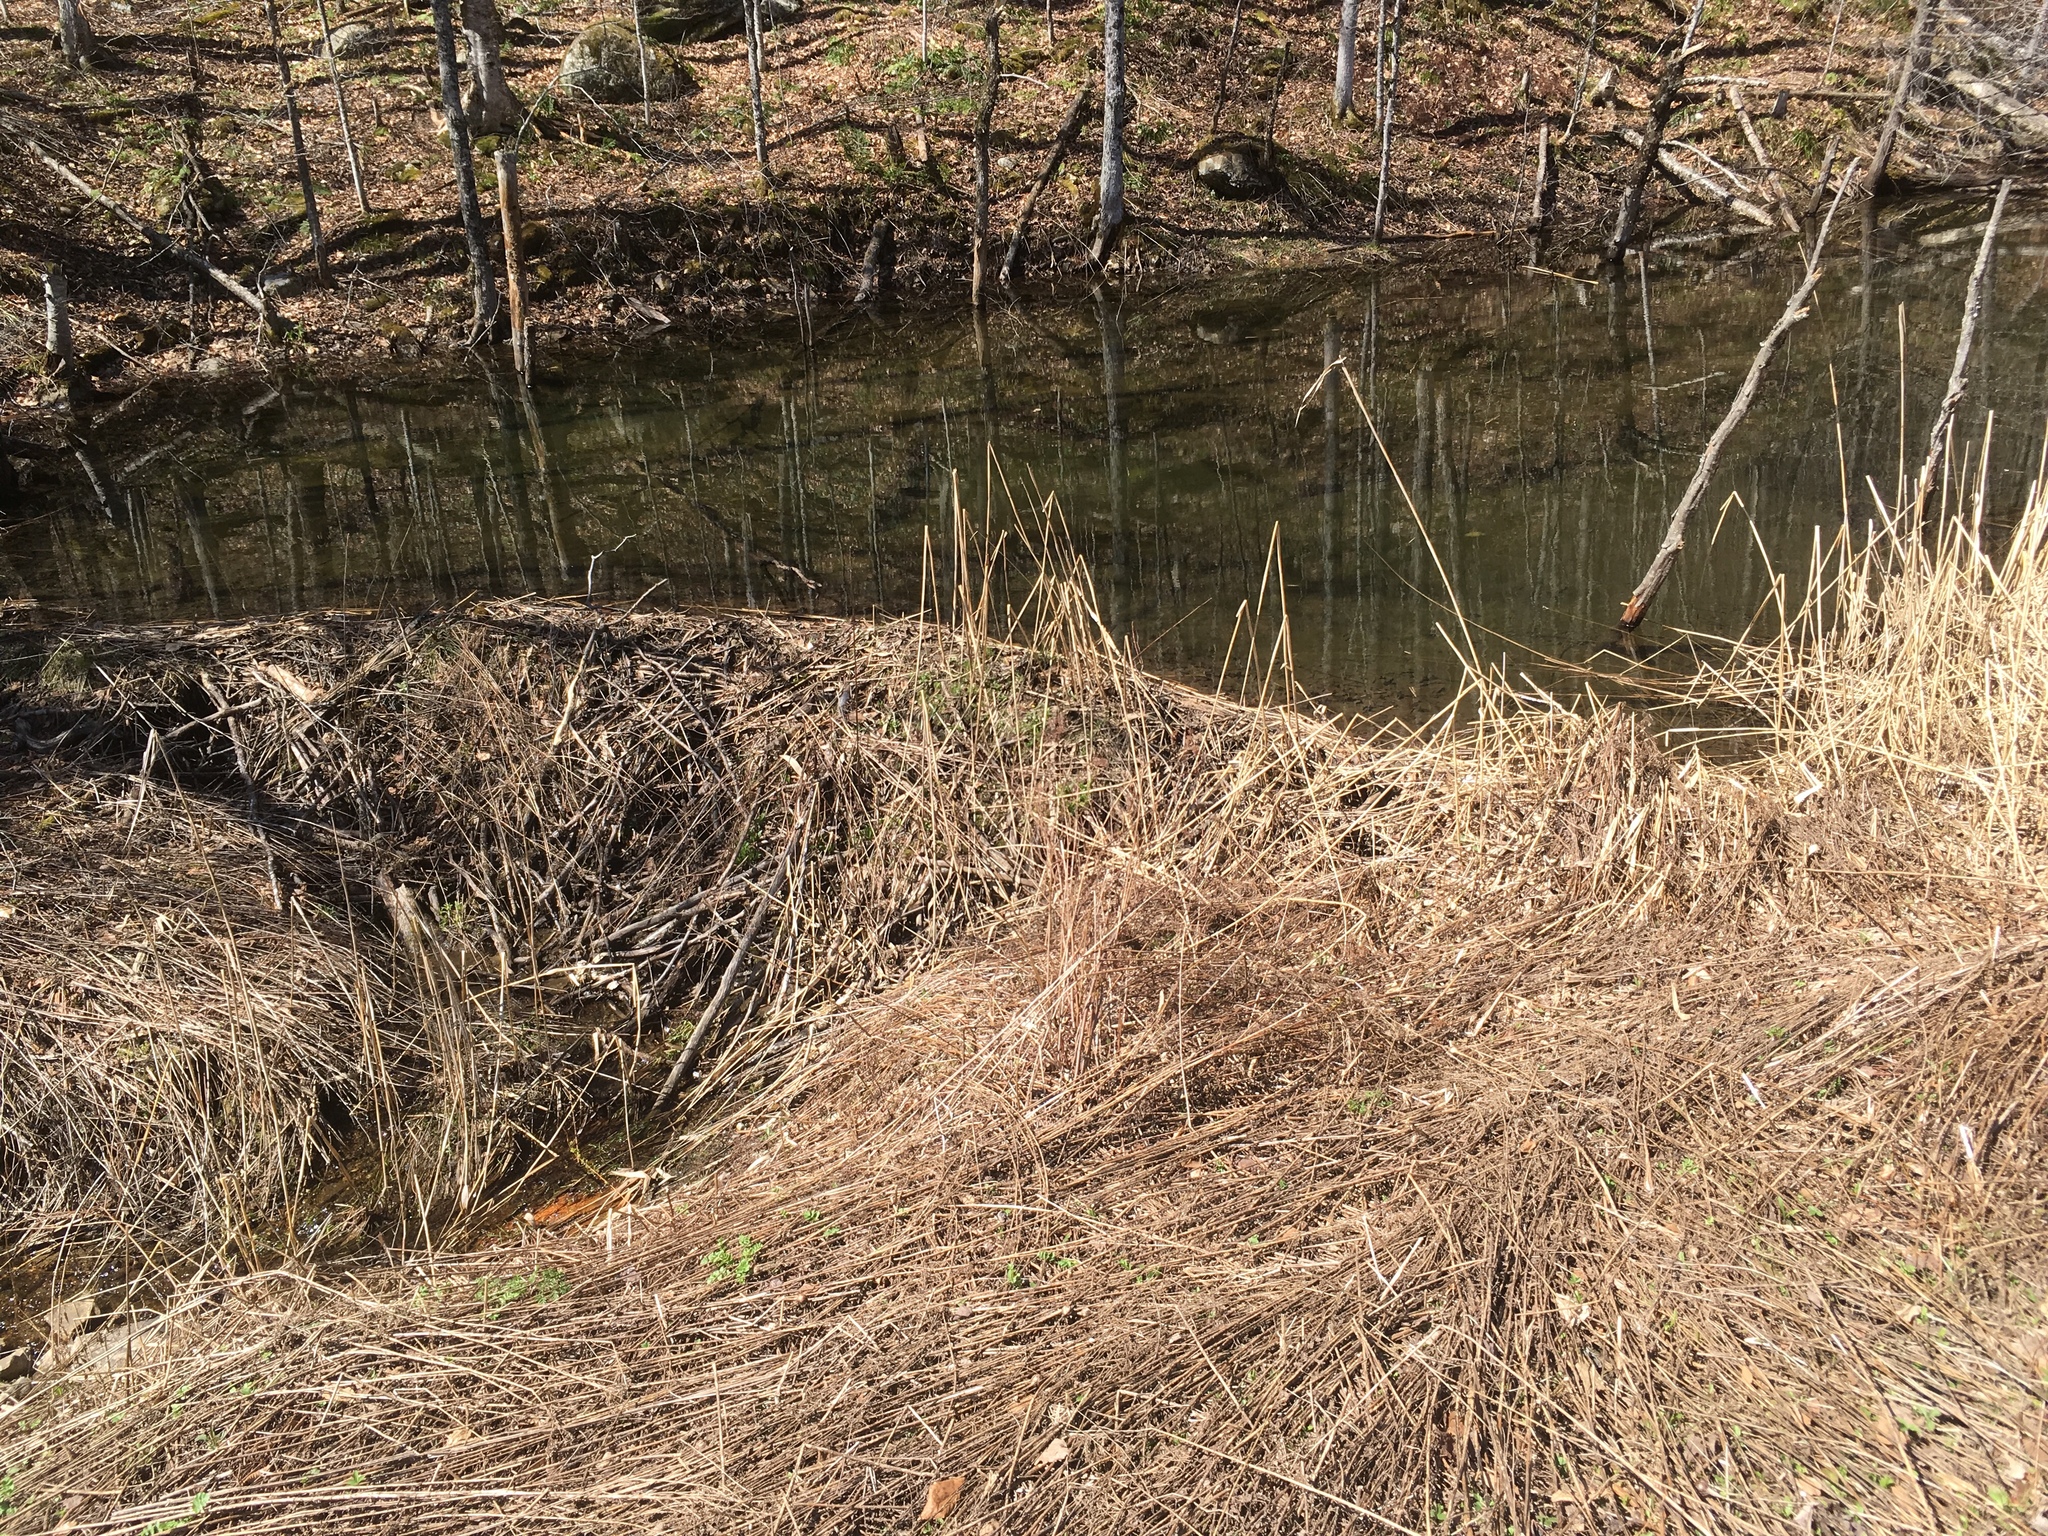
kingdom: Animalia
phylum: Chordata
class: Mammalia
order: Rodentia
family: Castoridae
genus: Castor
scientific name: Castor canadensis
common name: American beaver
